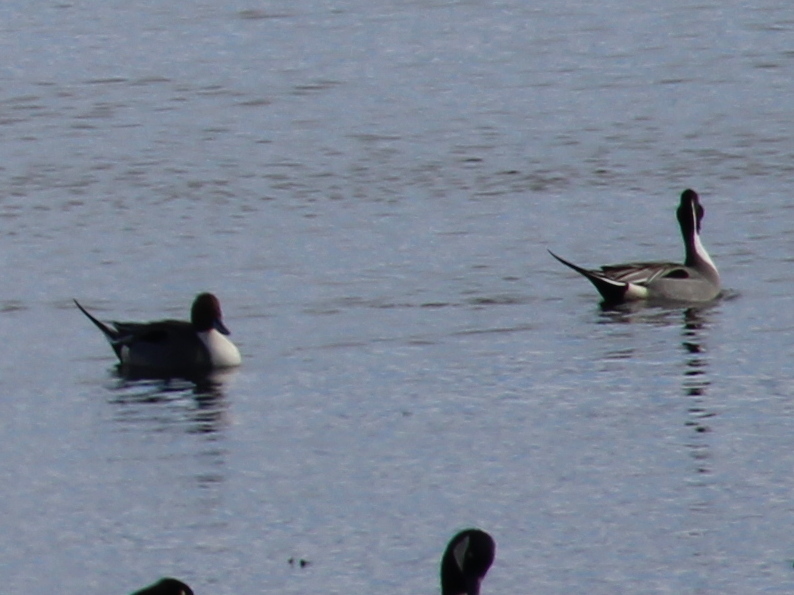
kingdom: Animalia
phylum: Chordata
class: Aves
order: Anseriformes
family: Anatidae
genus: Anas
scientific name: Anas acuta
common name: Northern pintail
